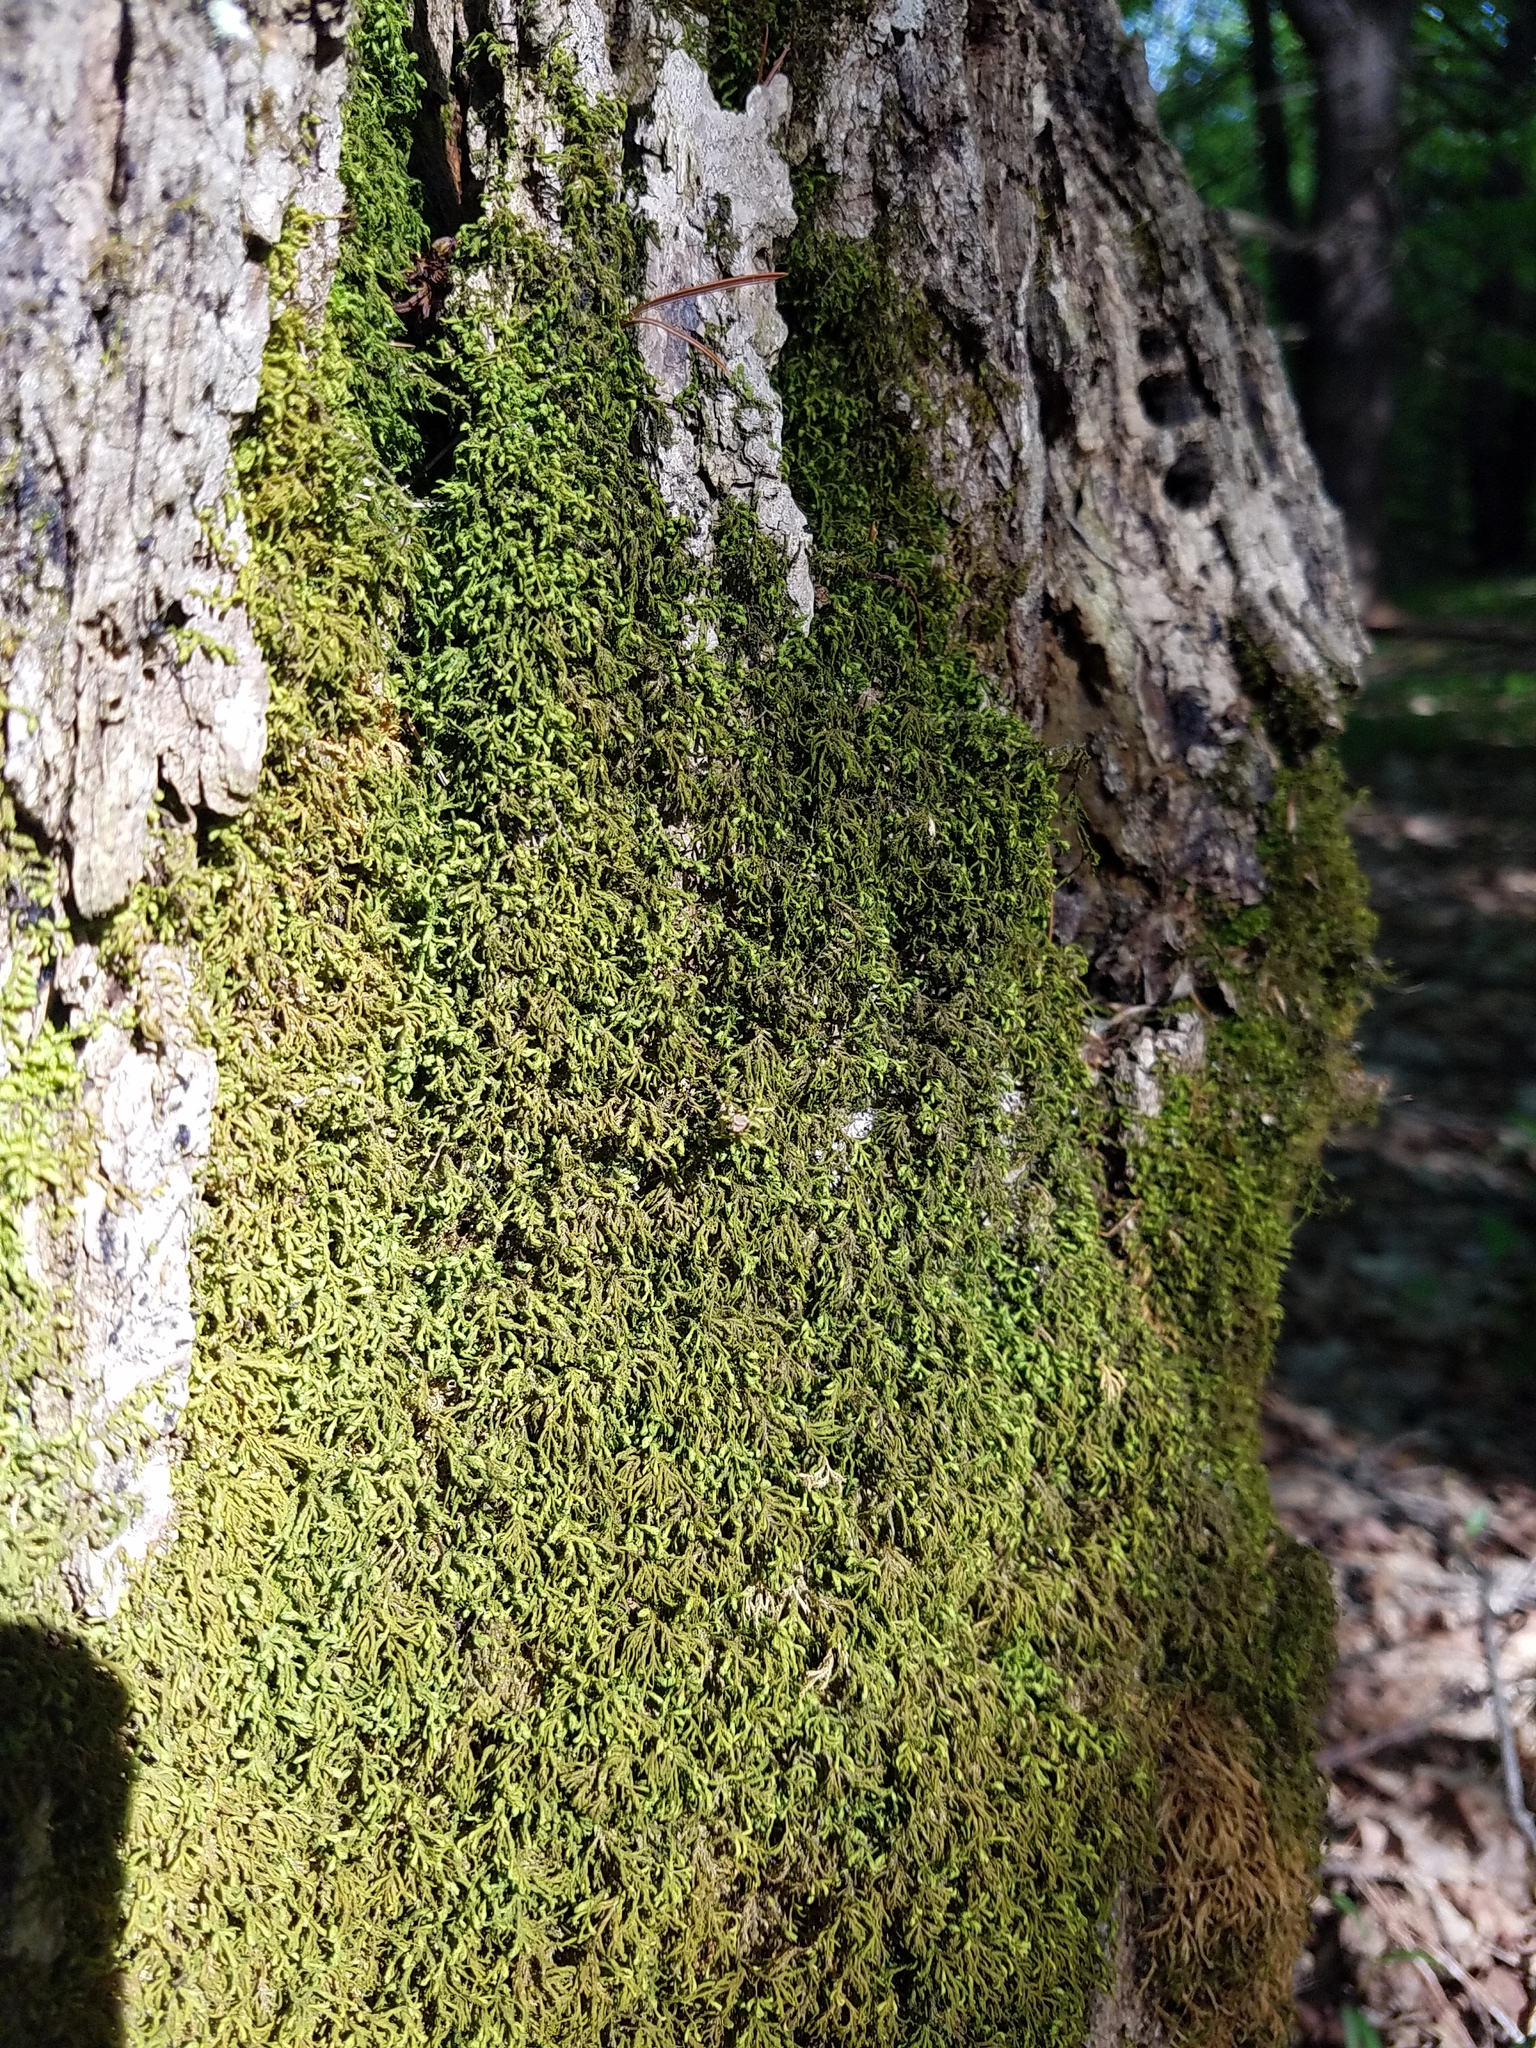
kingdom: Plantae
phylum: Bryophyta
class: Bryopsida
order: Hypnales
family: Neckeraceae
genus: Pseudanomodon
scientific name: Pseudanomodon attenuatus
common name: Tree-skirt moss
